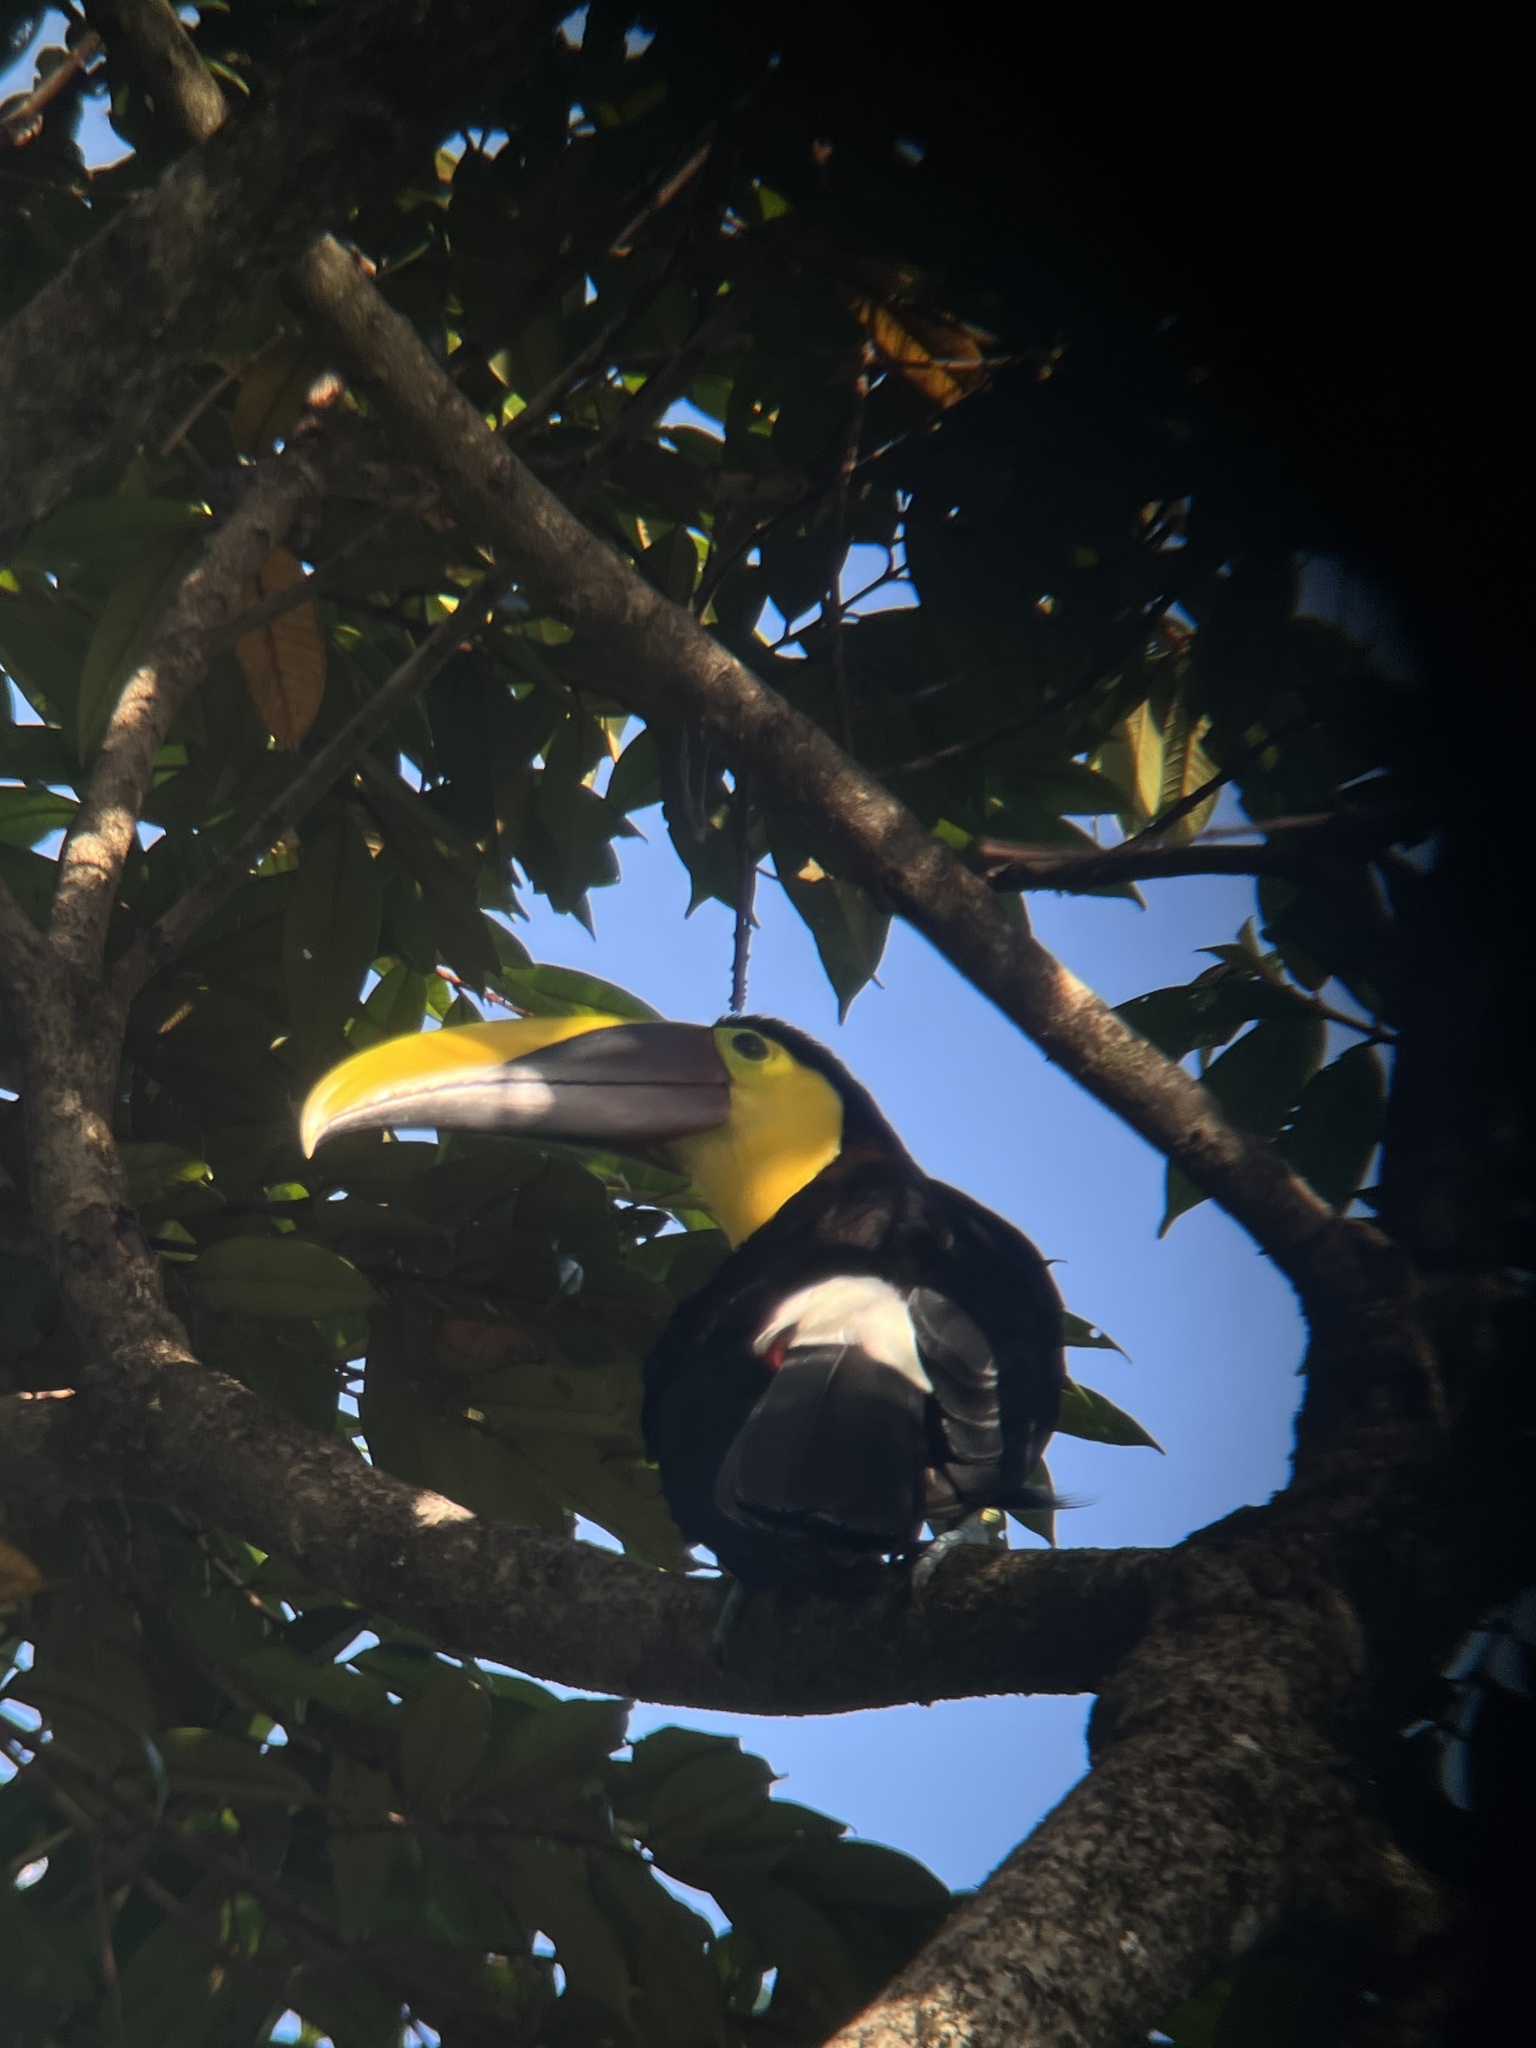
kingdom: Animalia
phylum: Chordata
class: Aves
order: Piciformes
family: Ramphastidae
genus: Ramphastos
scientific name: Ramphastos ambiguus
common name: Yellow-throated toucan
